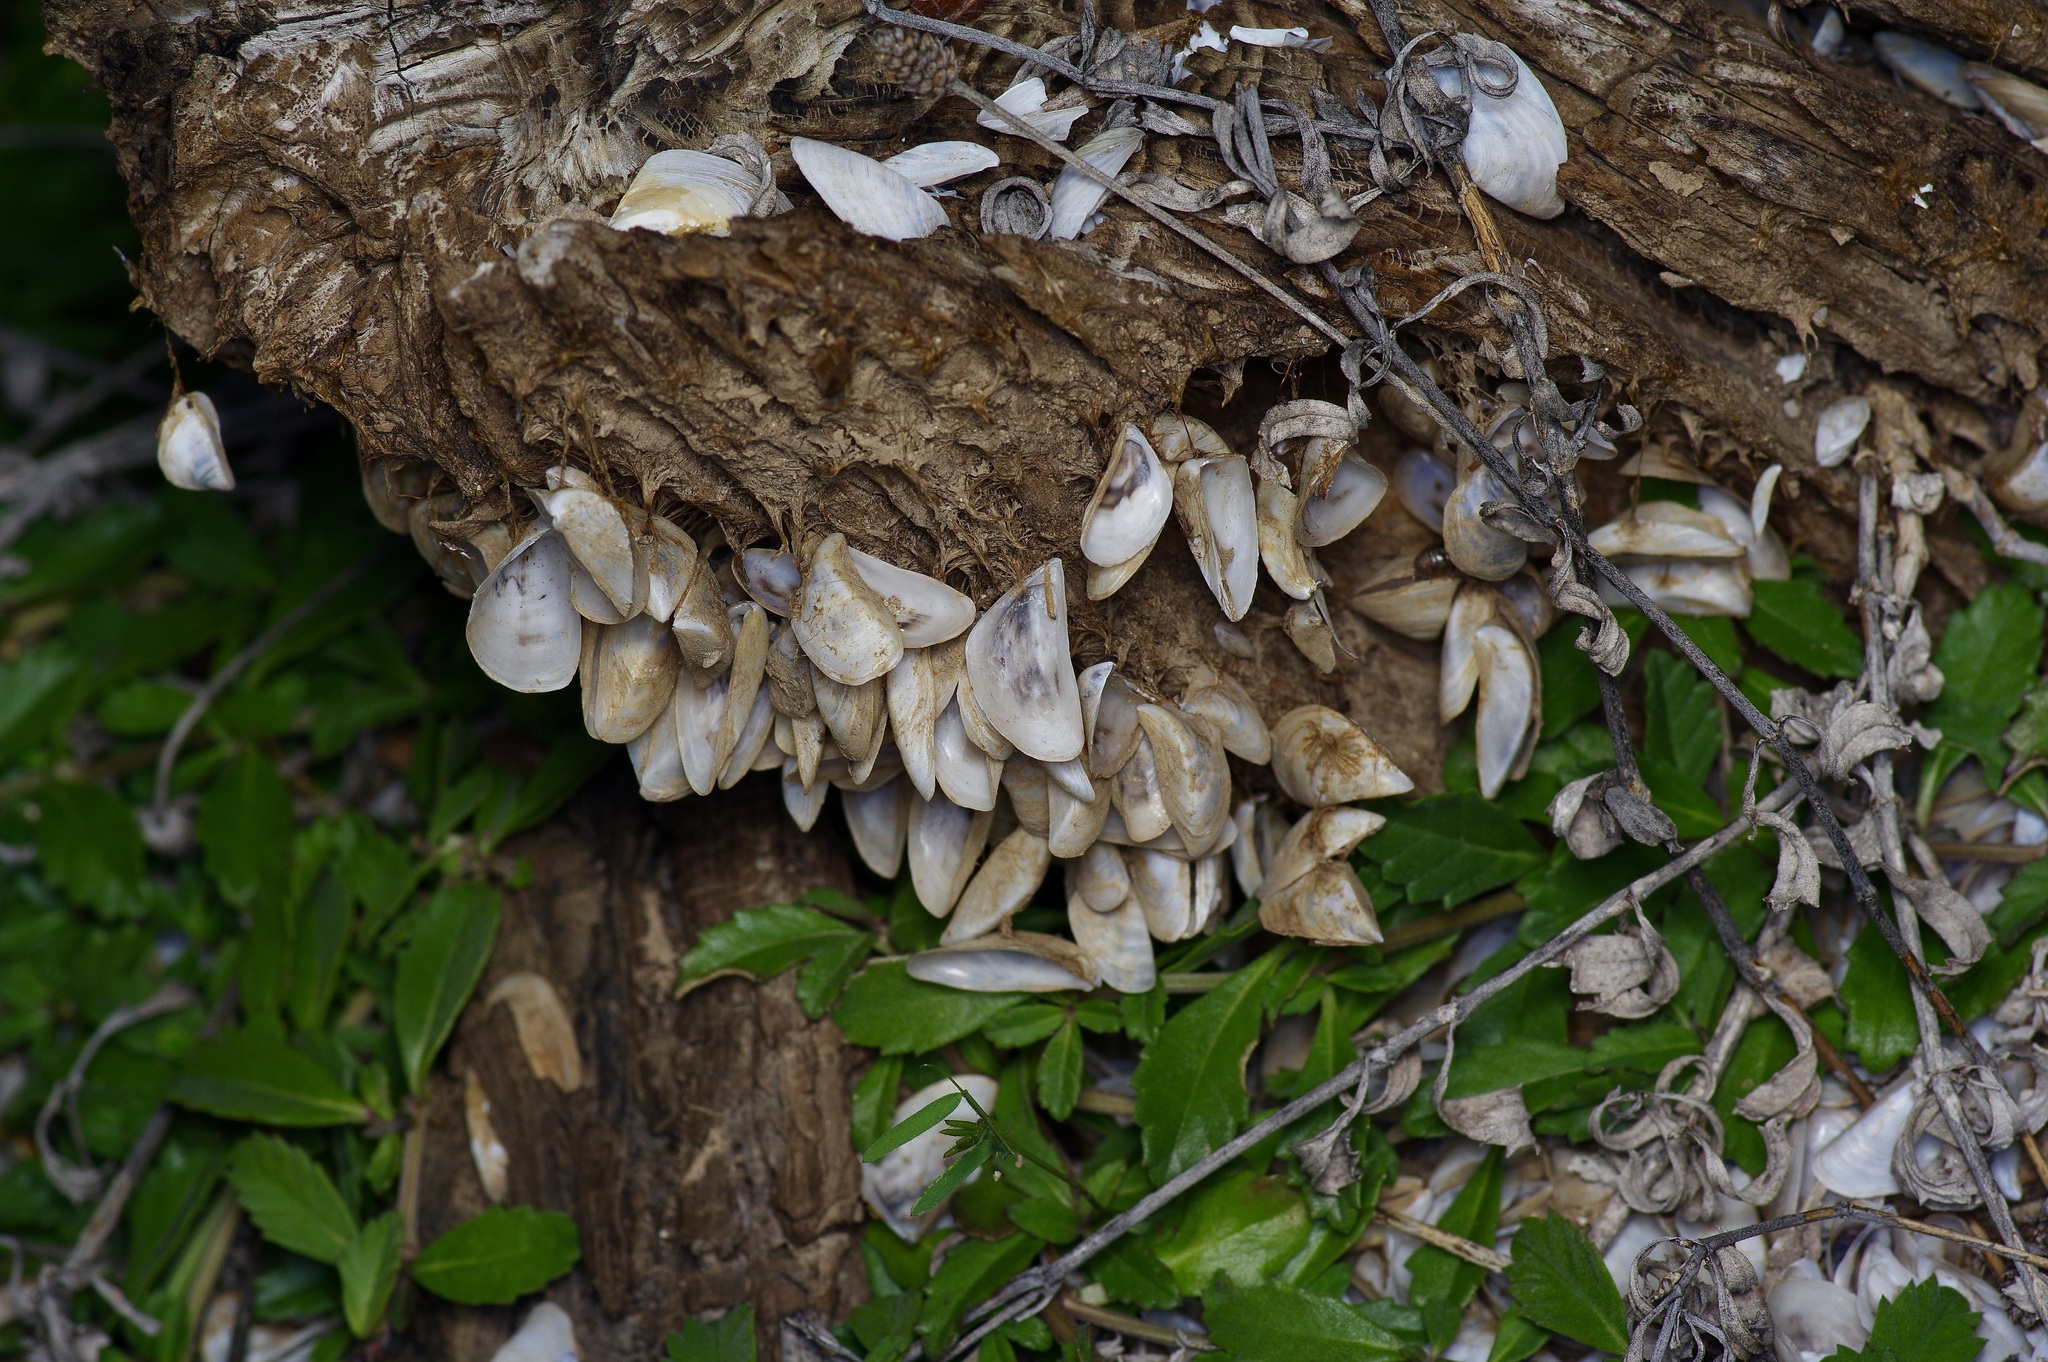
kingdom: Animalia
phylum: Mollusca
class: Bivalvia
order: Myida
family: Dreissenidae
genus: Dreissena
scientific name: Dreissena polymorpha
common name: Zebra mussel
